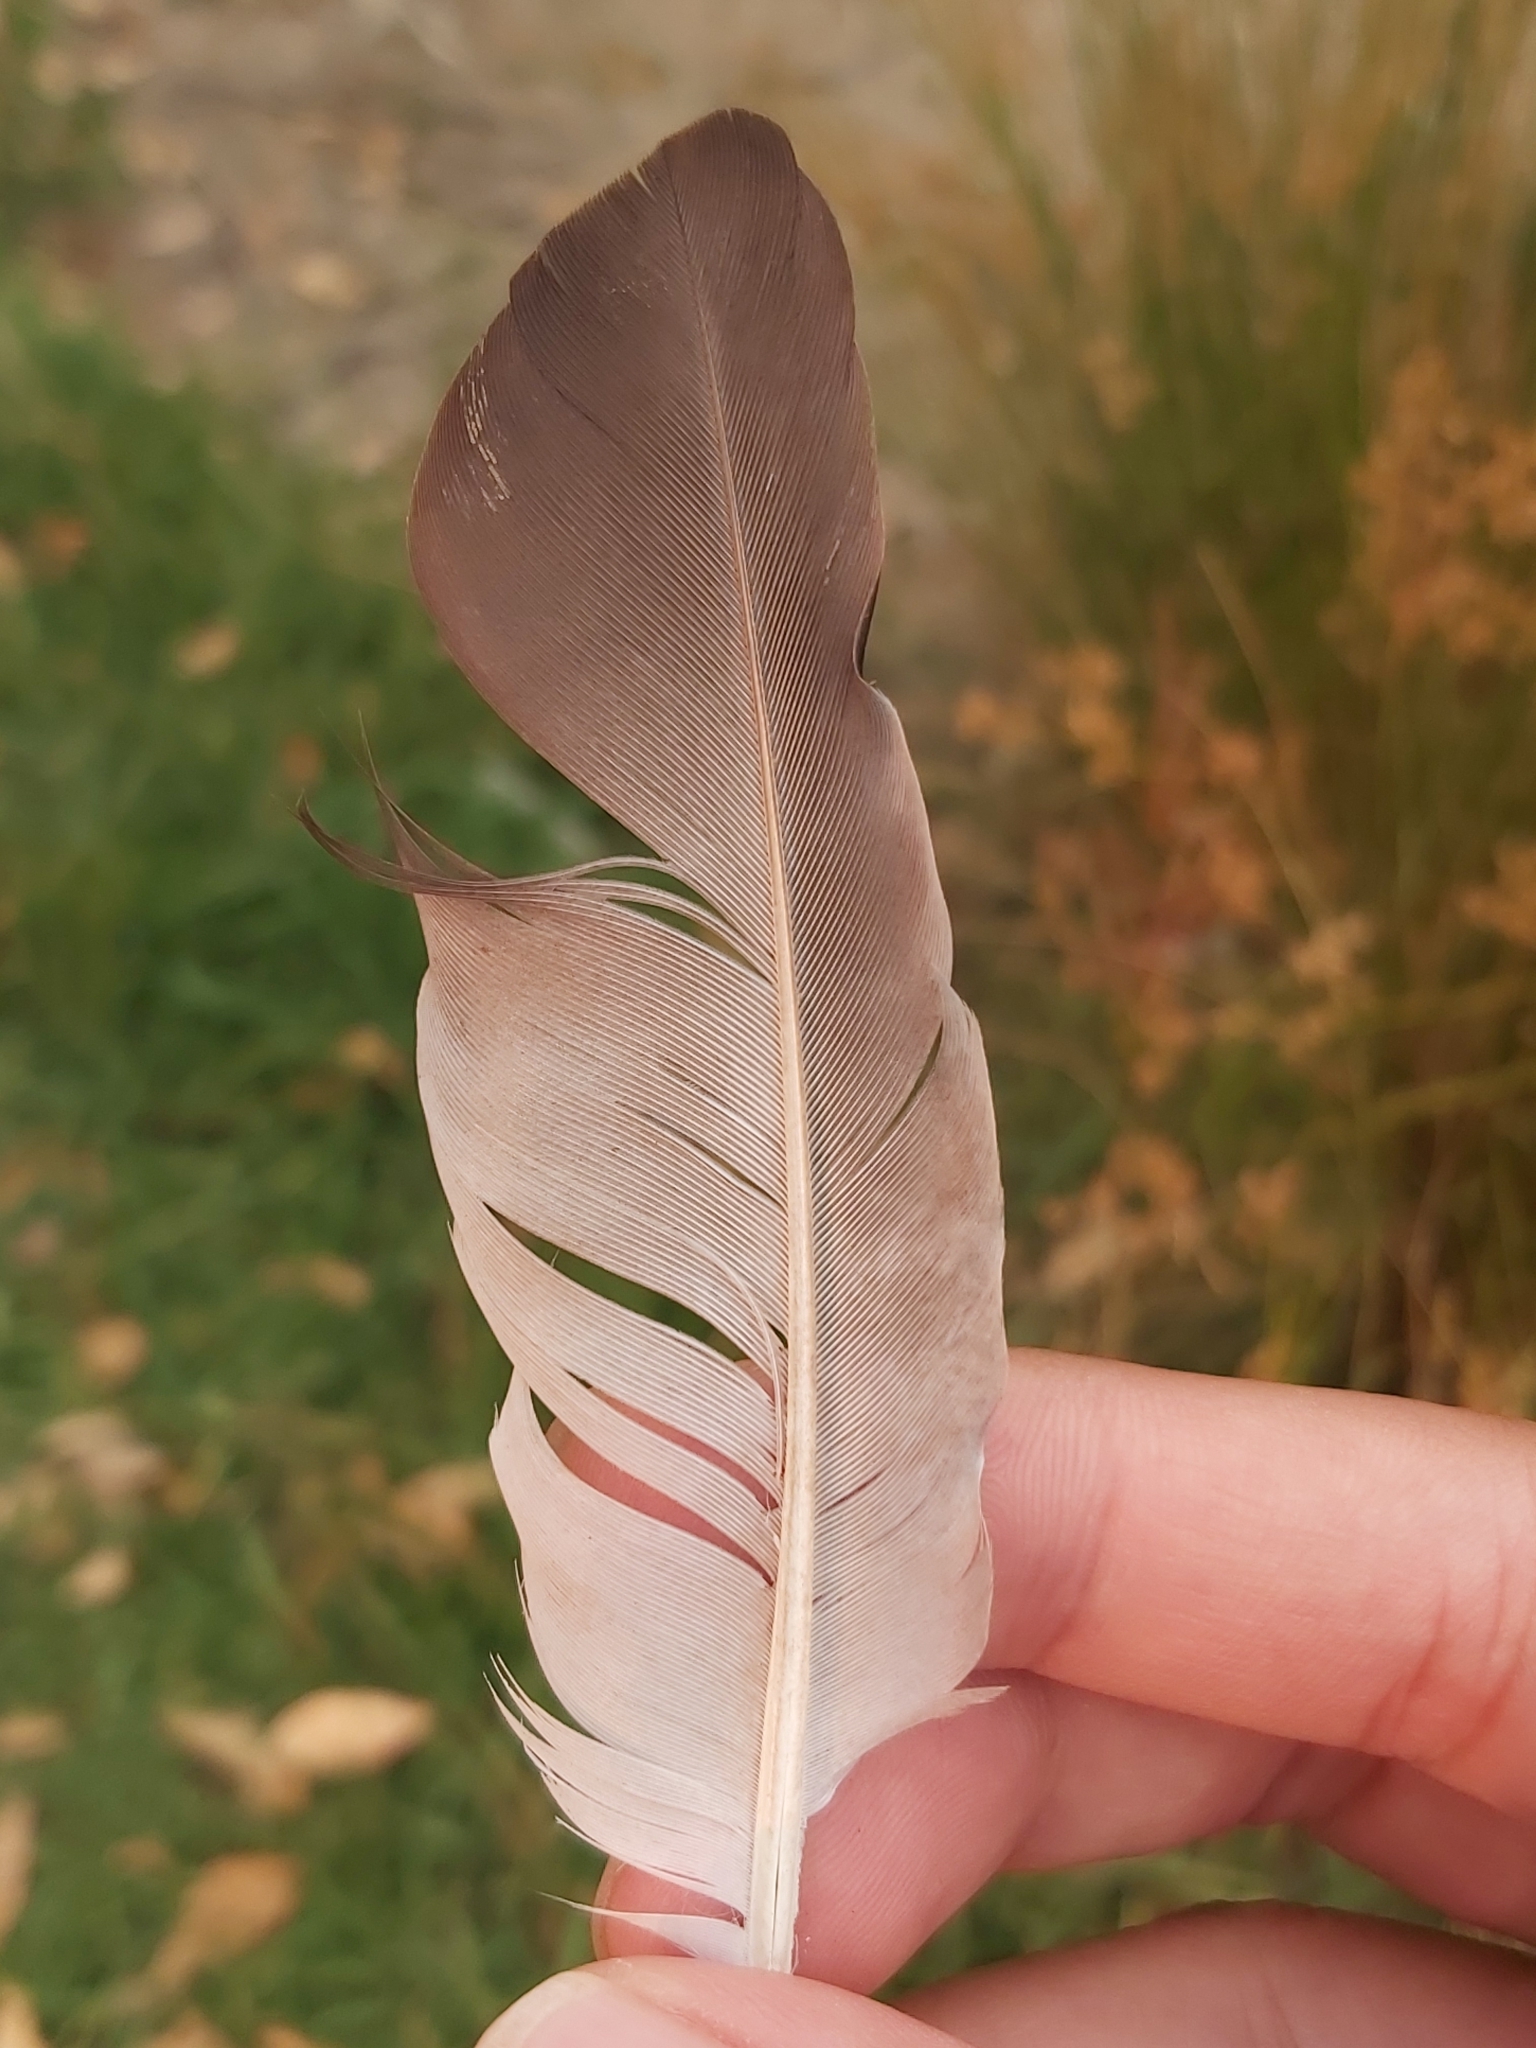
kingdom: Animalia
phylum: Chordata
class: Aves
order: Columbiformes
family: Columbidae
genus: Columba
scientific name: Columba livia
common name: Rock pigeon
